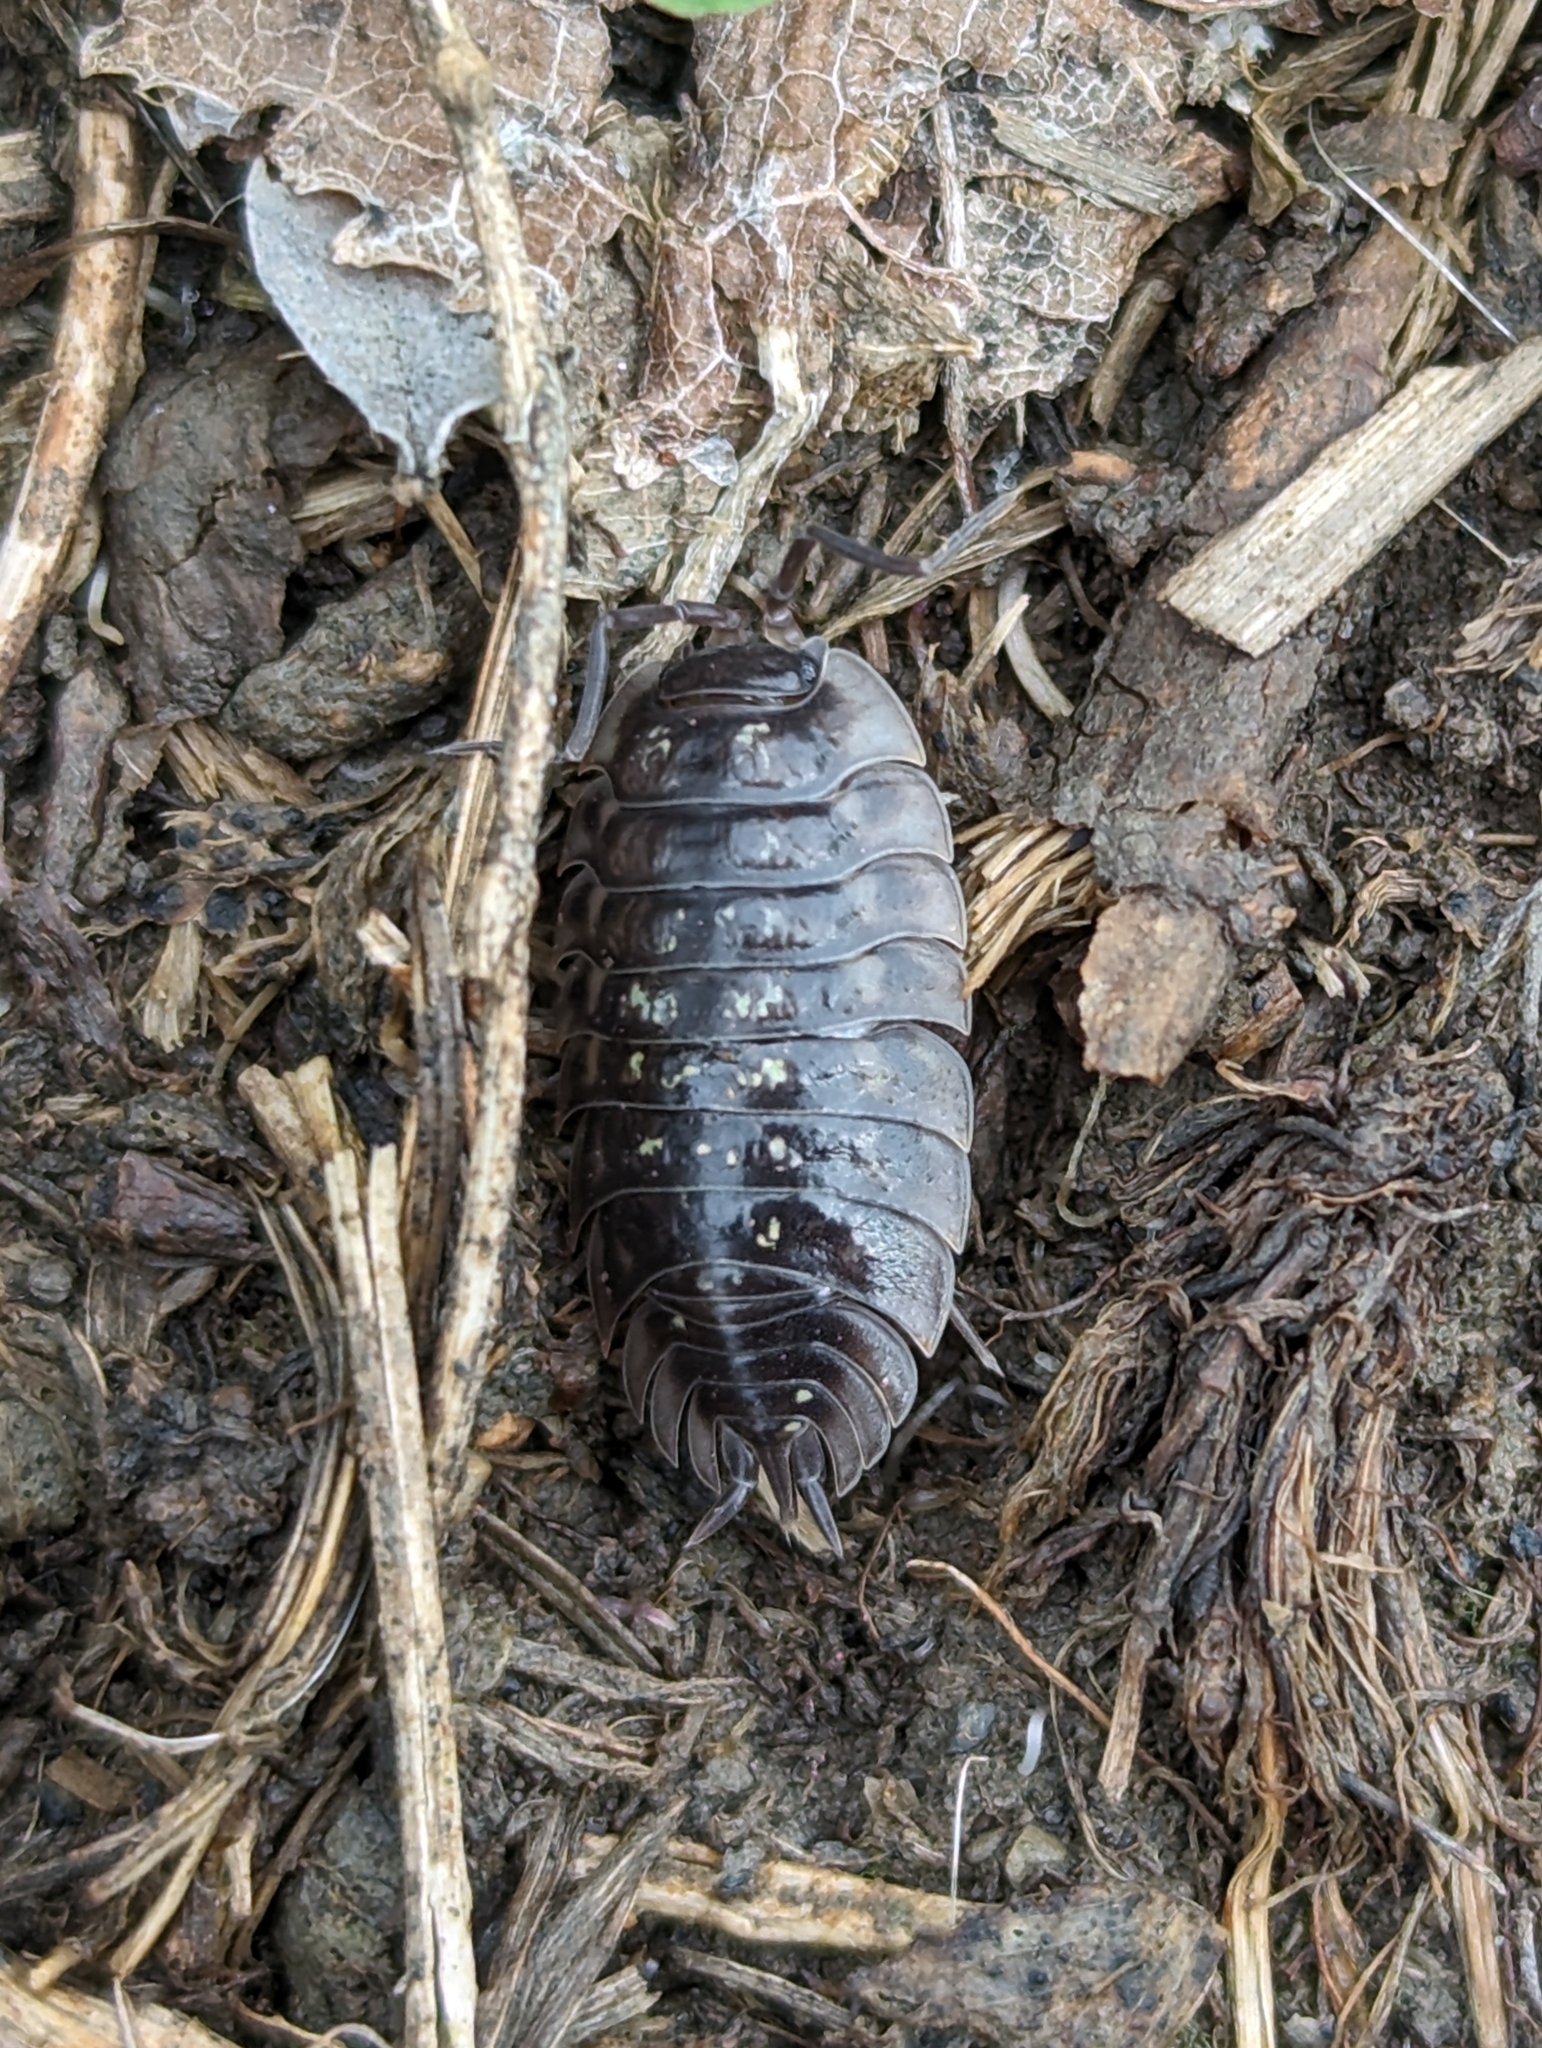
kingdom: Animalia
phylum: Arthropoda
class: Malacostraca
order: Isopoda
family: Oniscidae
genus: Oniscus
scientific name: Oniscus asellus
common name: Common shiny woodlouse
